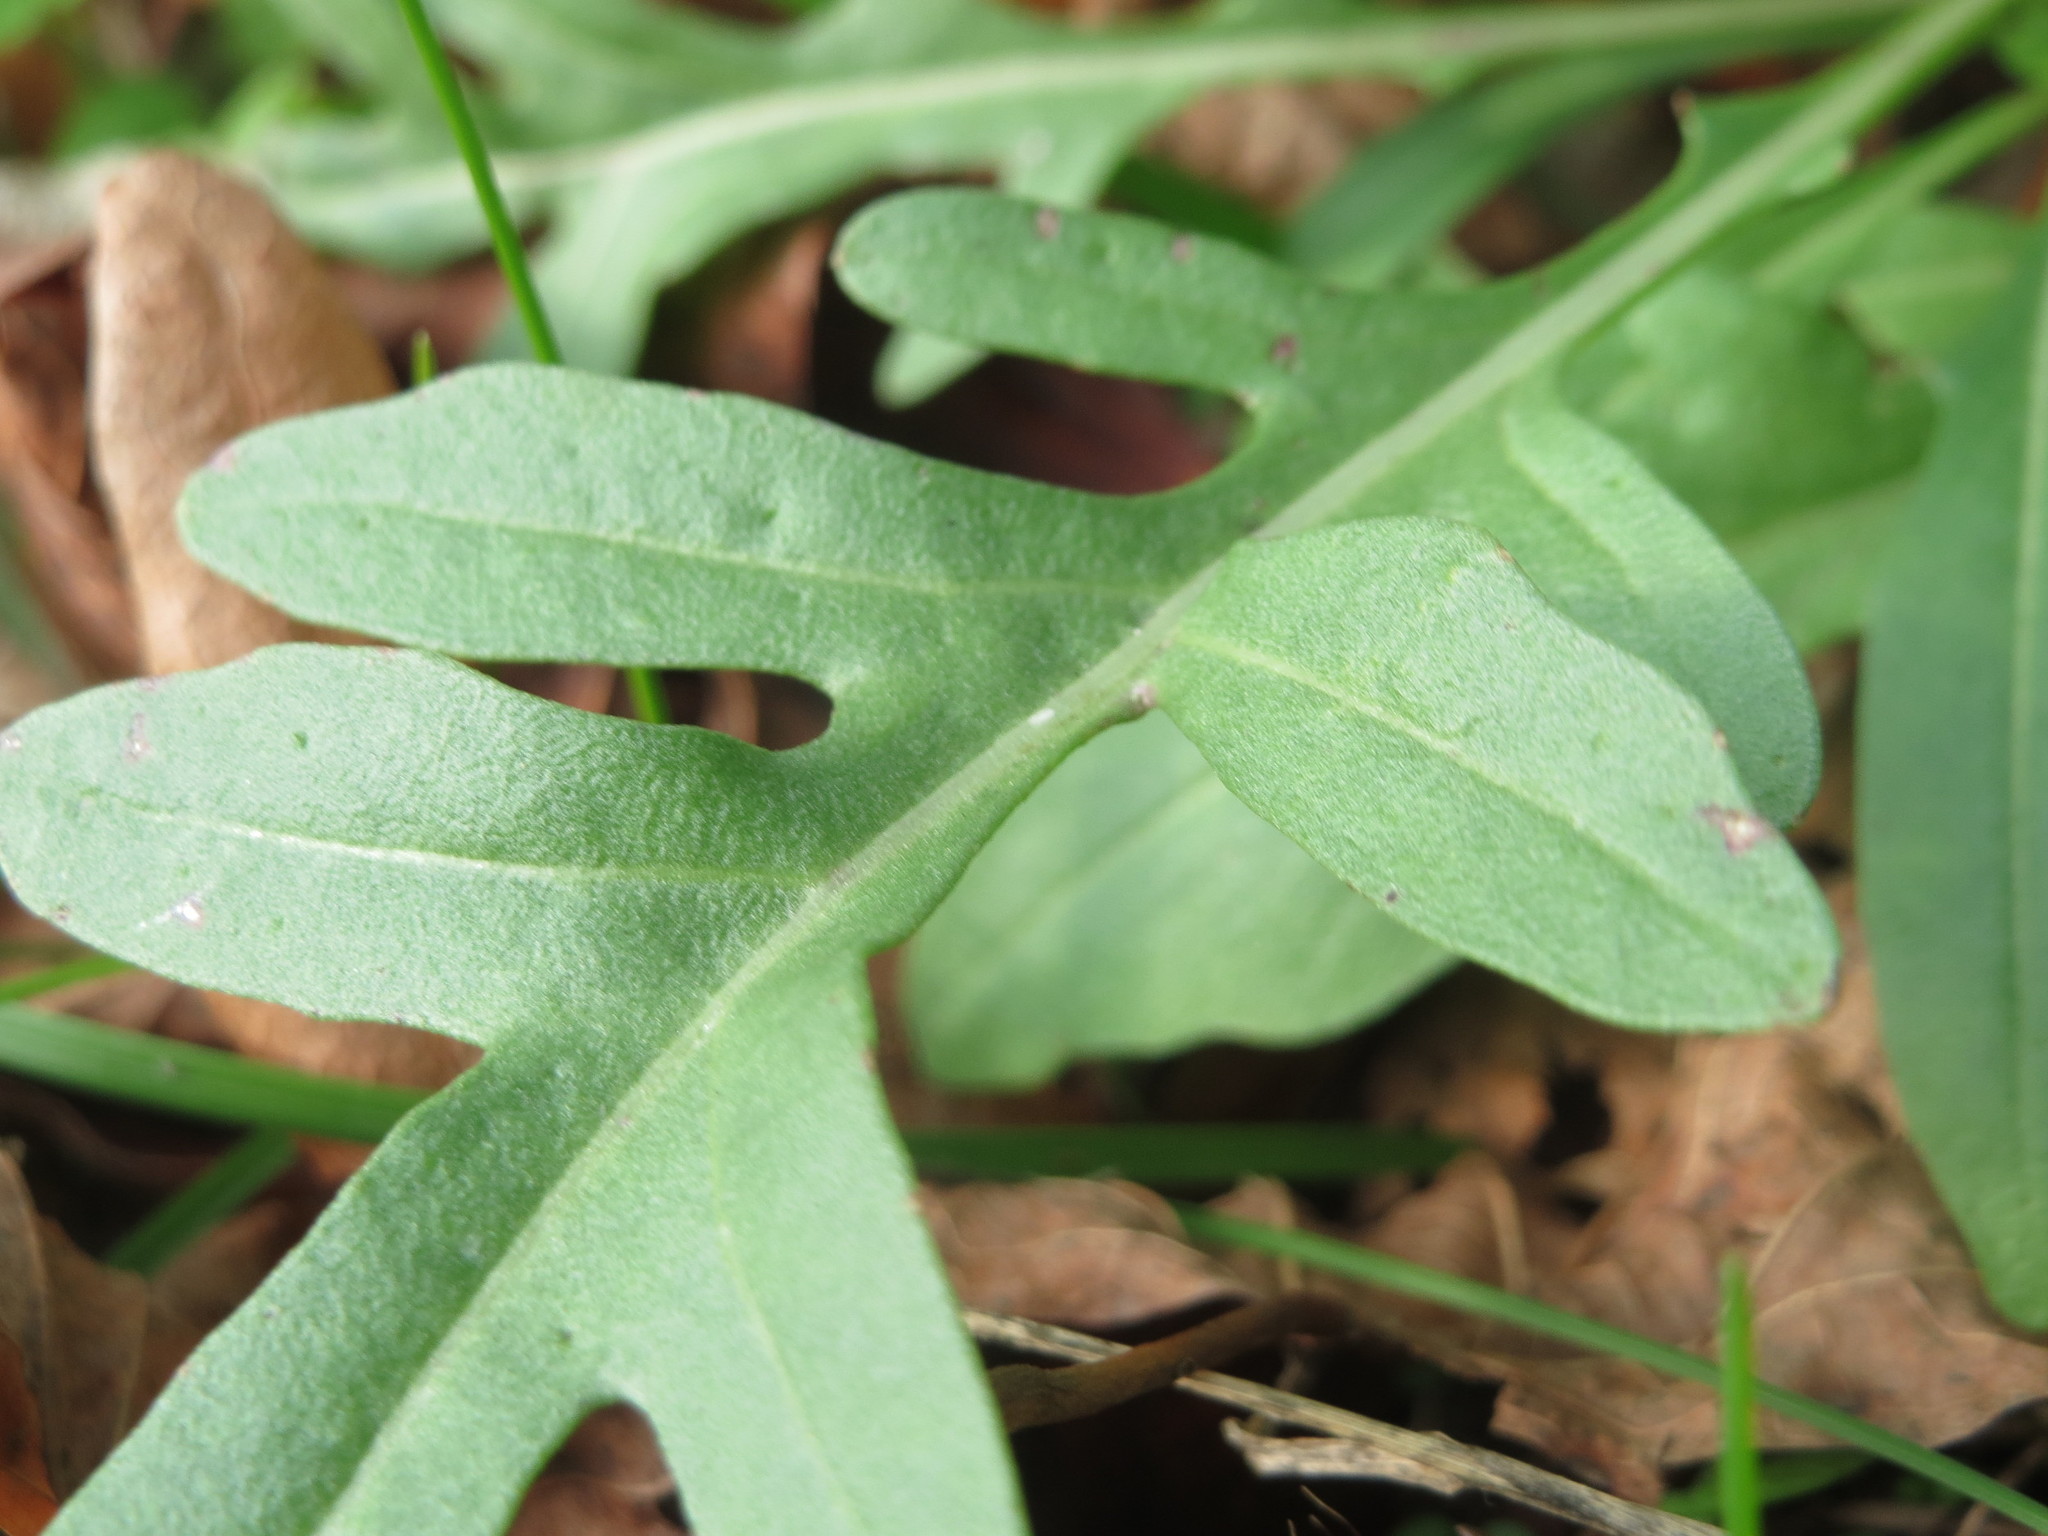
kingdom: Plantae
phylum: Tracheophyta
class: Magnoliopsida
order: Brassicales
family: Brassicaceae
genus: Diplotaxis
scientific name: Diplotaxis tenuifolia
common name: Perennial wall-rocket
